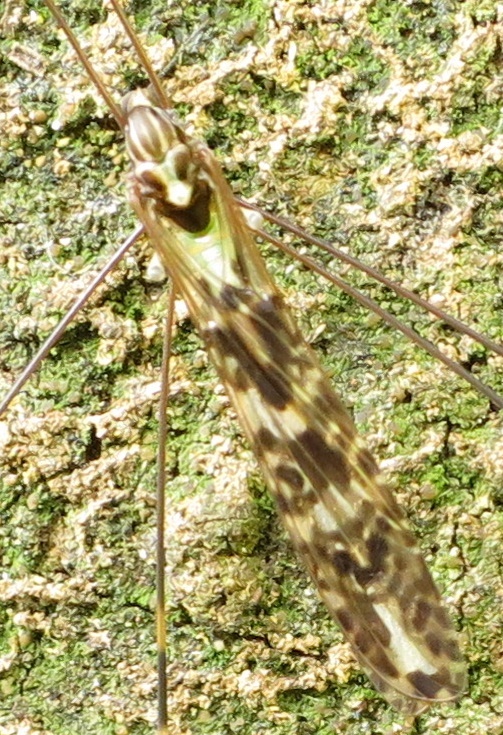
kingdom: Animalia
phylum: Arthropoda
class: Insecta
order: Diptera
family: Limoniidae
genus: Discobola
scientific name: Discobola dohrni
